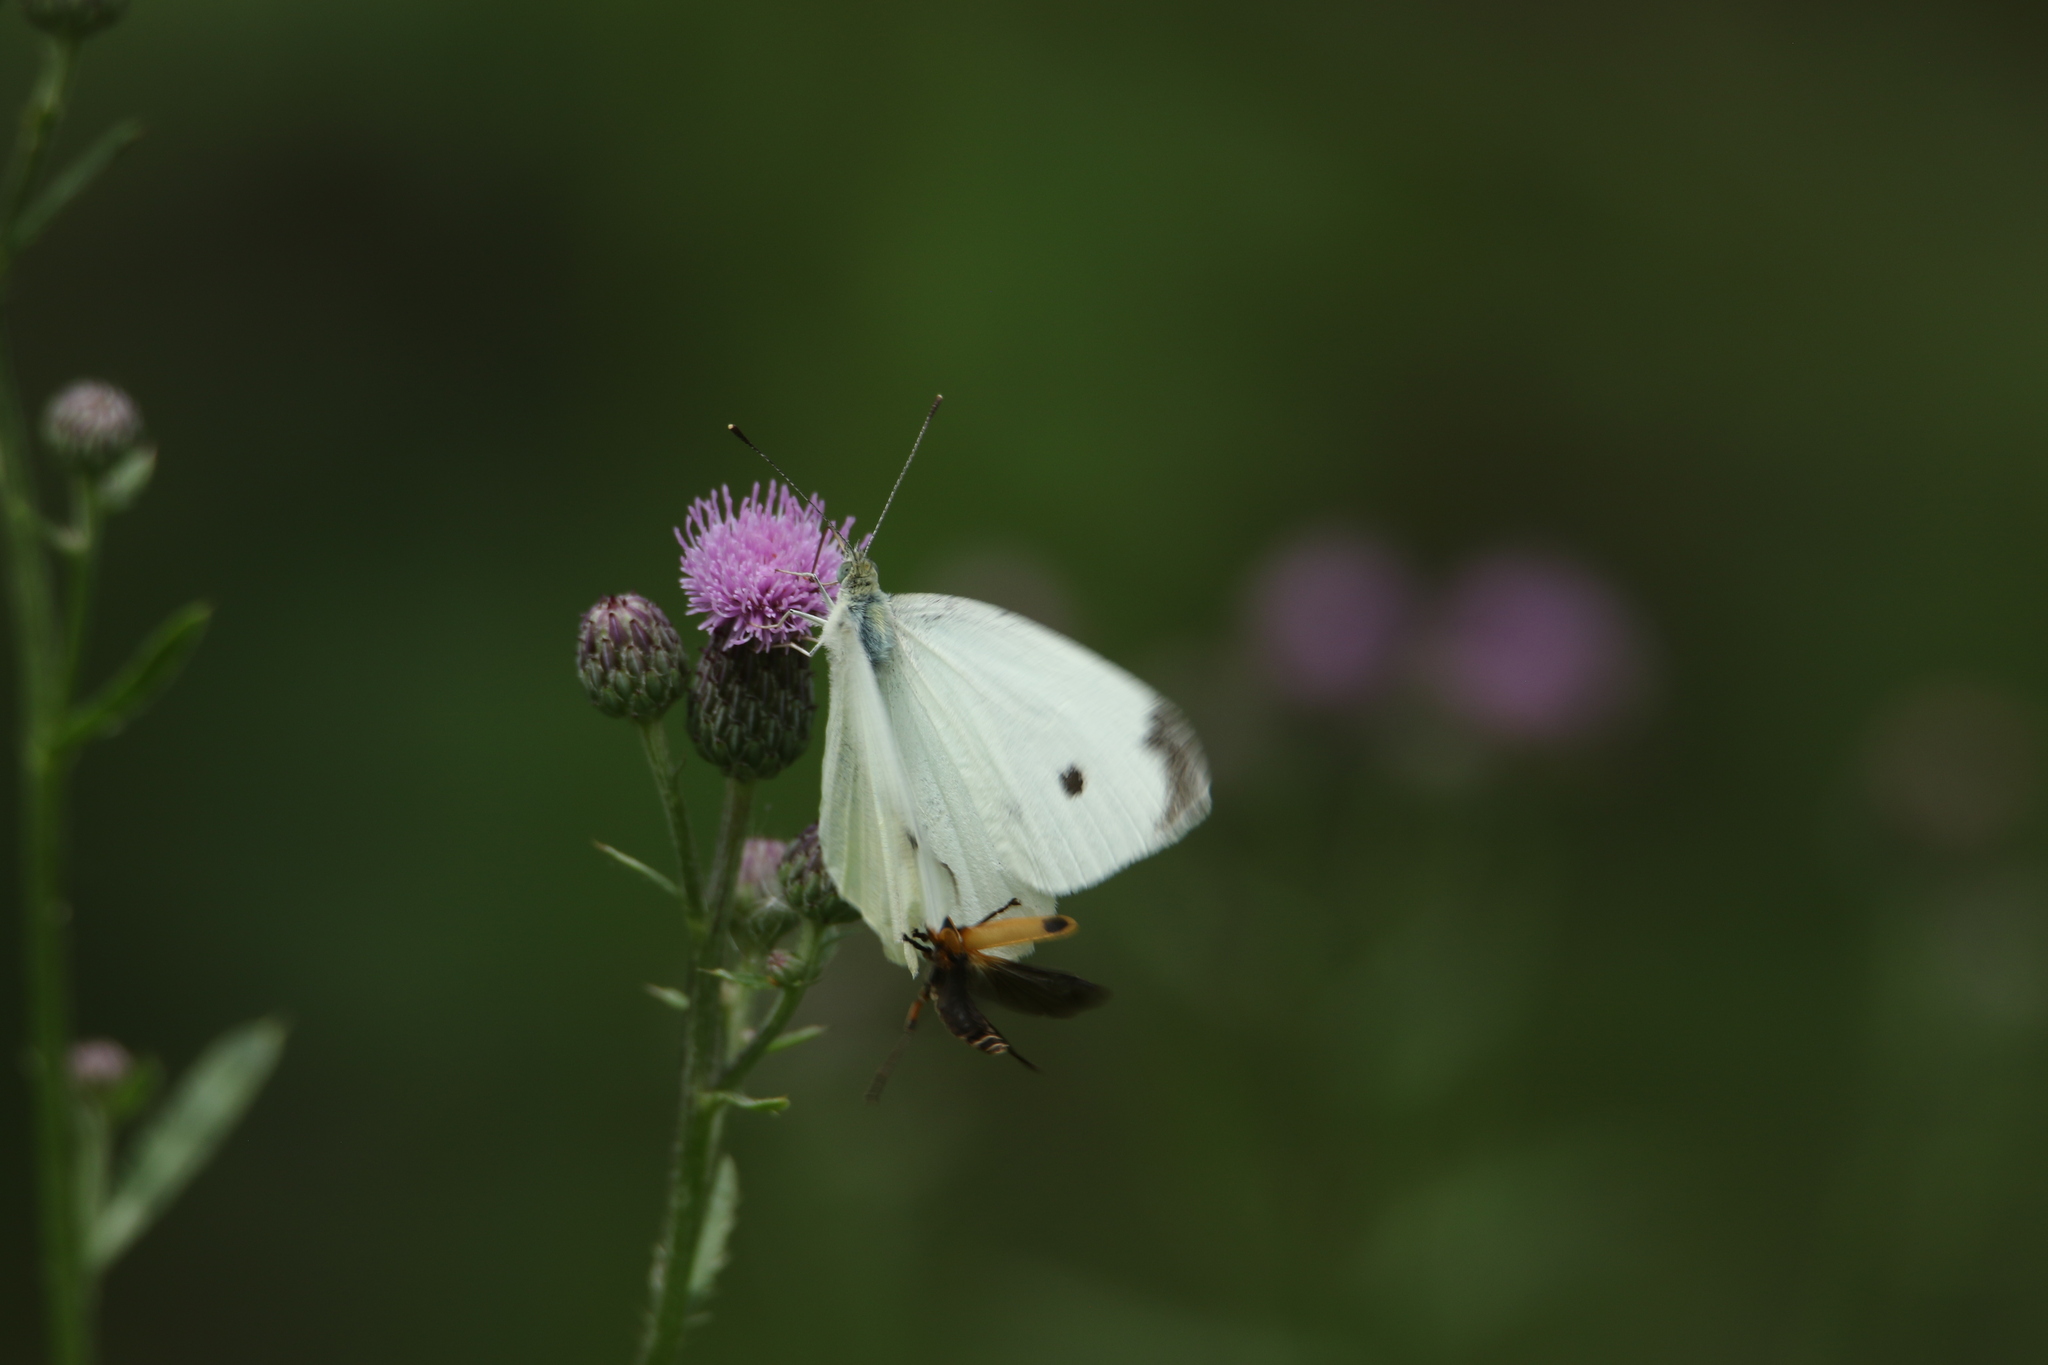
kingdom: Animalia
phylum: Arthropoda
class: Insecta
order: Lepidoptera
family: Pieridae
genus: Pieris
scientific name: Pieris rapae
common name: Small white
